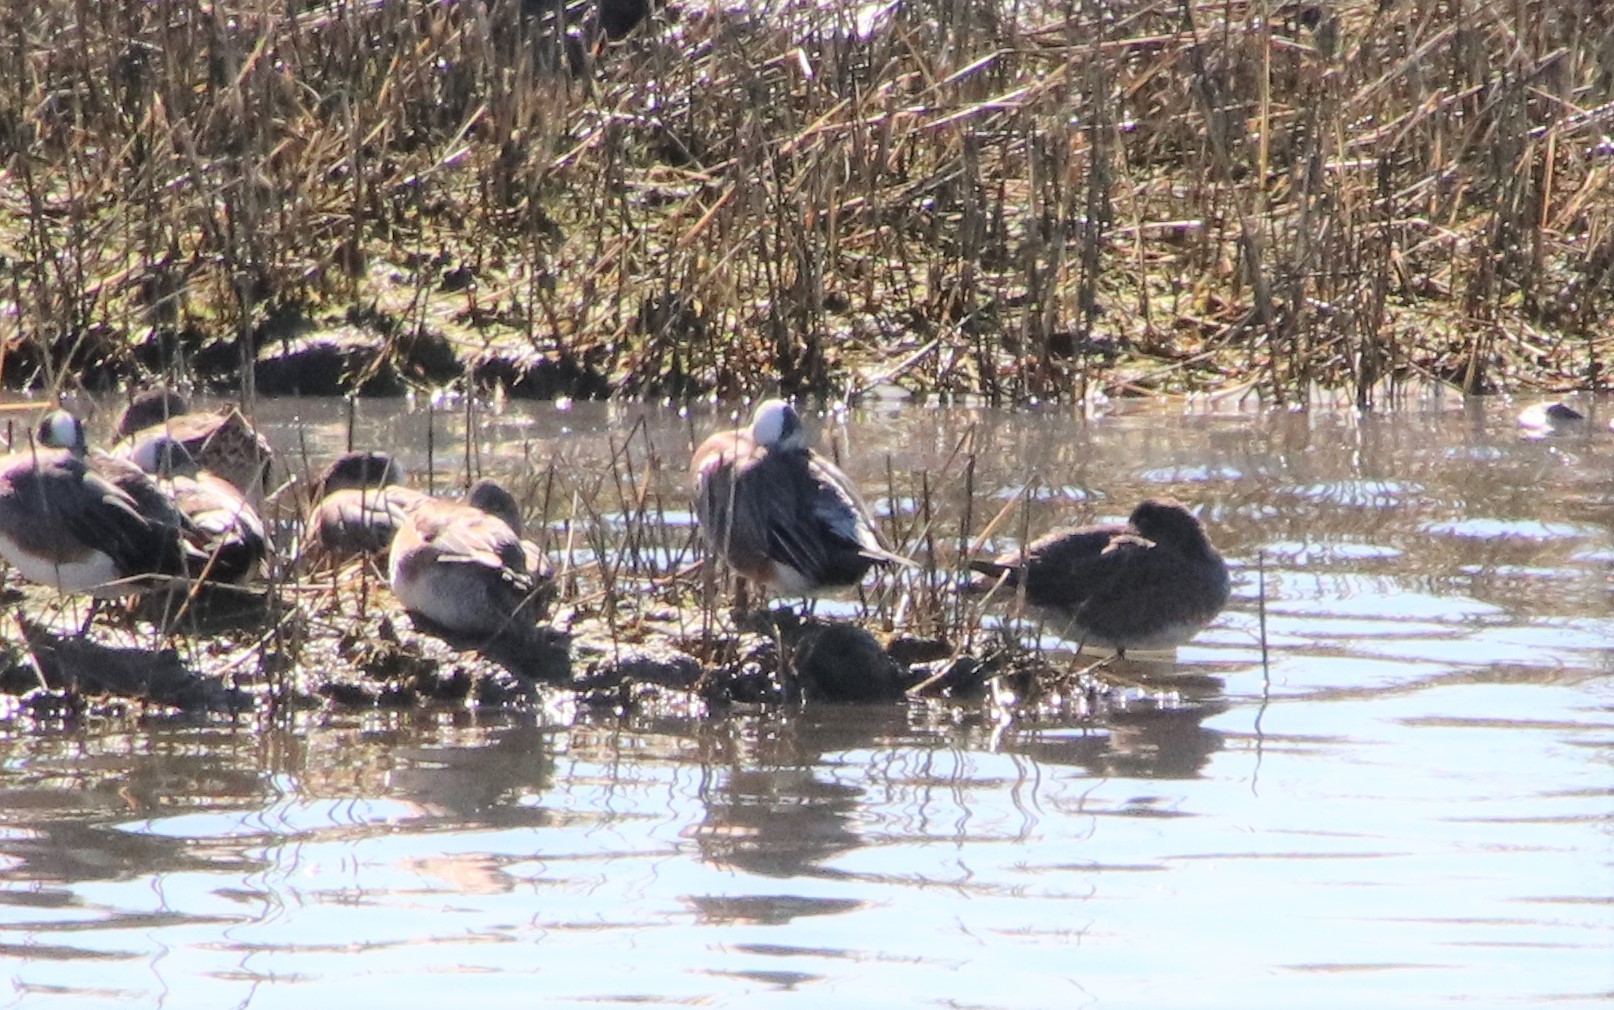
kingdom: Animalia
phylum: Chordata
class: Aves
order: Anseriformes
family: Anatidae
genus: Mareca
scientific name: Mareca americana
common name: American wigeon
